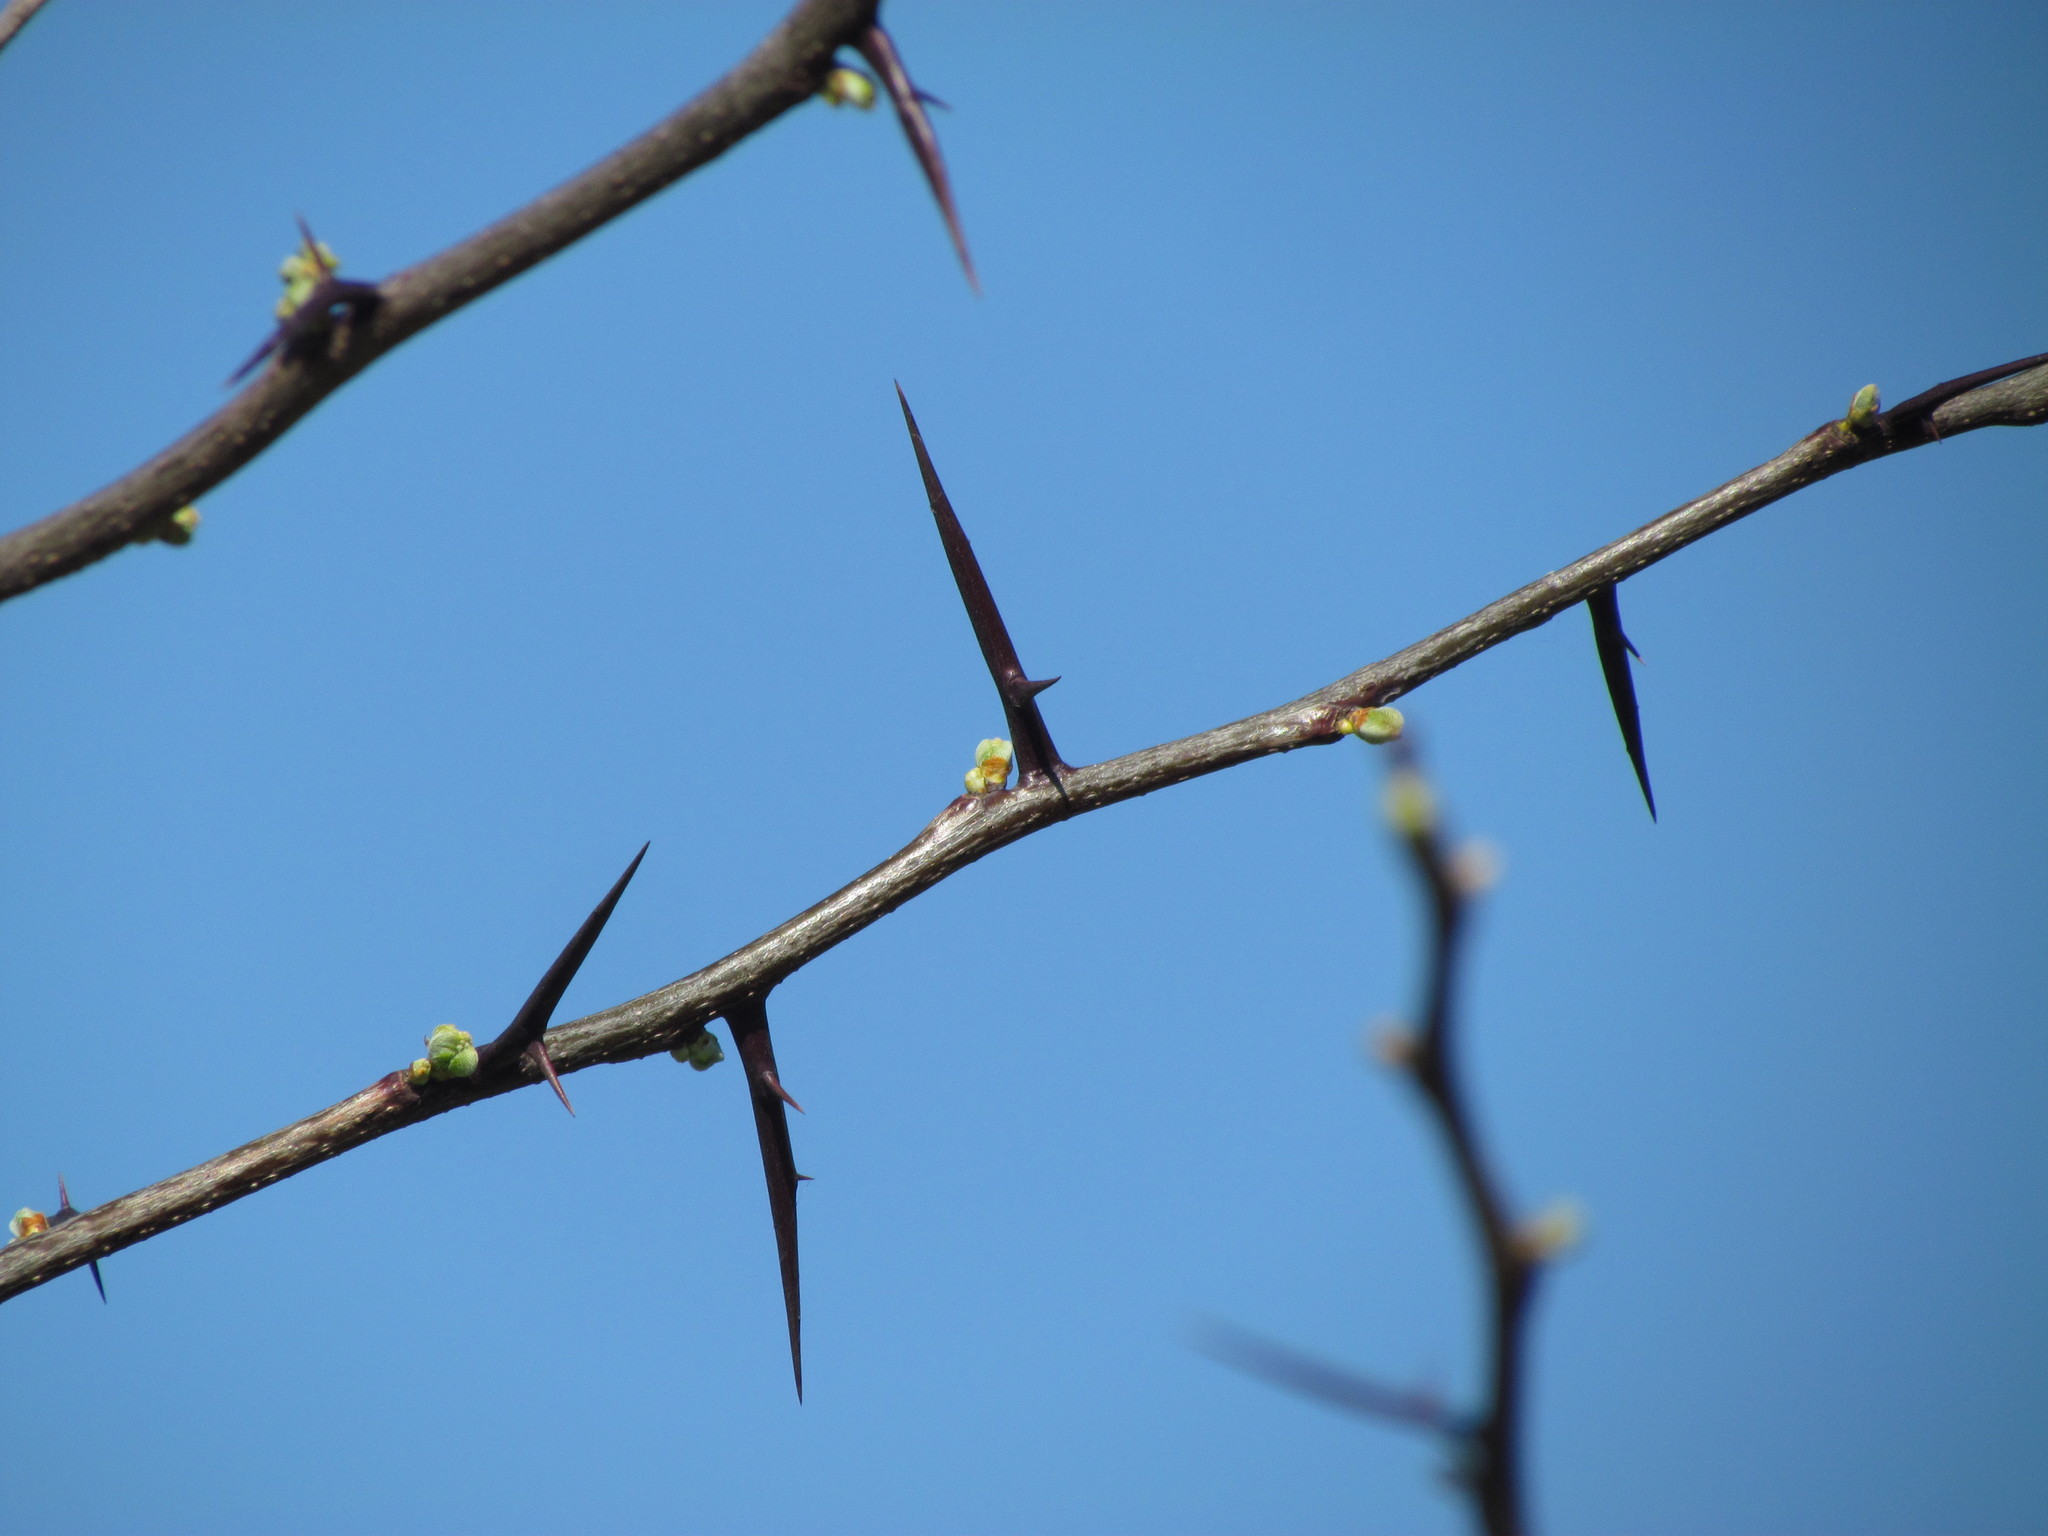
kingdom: Plantae
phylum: Tracheophyta
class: Magnoliopsida
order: Fabales
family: Fabaceae
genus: Gleditsia
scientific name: Gleditsia triacanthos
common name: Common honeylocust
